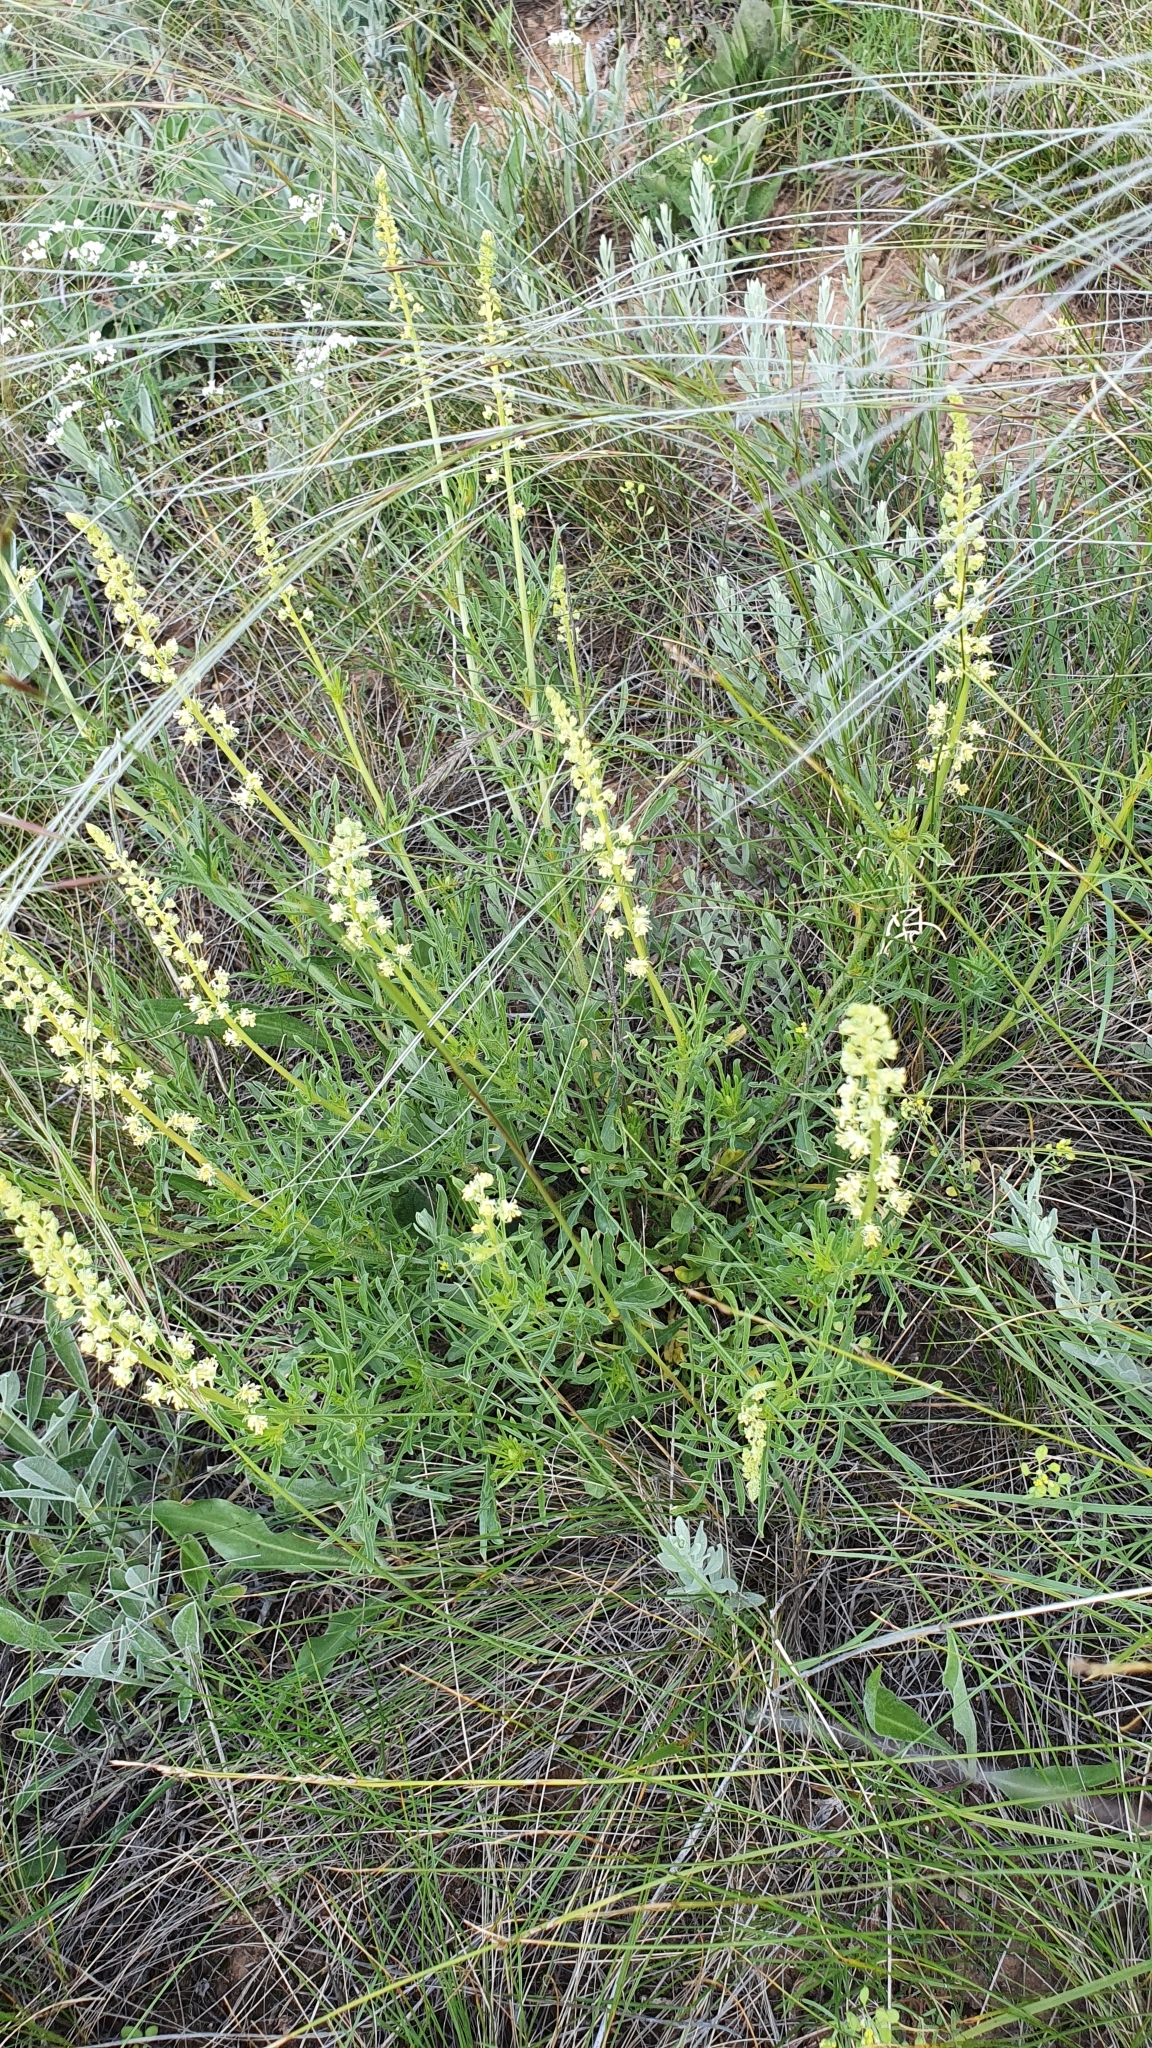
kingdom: Plantae
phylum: Tracheophyta
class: Magnoliopsida
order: Brassicales
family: Resedaceae
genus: Reseda
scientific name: Reseda lutea
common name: Wild mignonette
